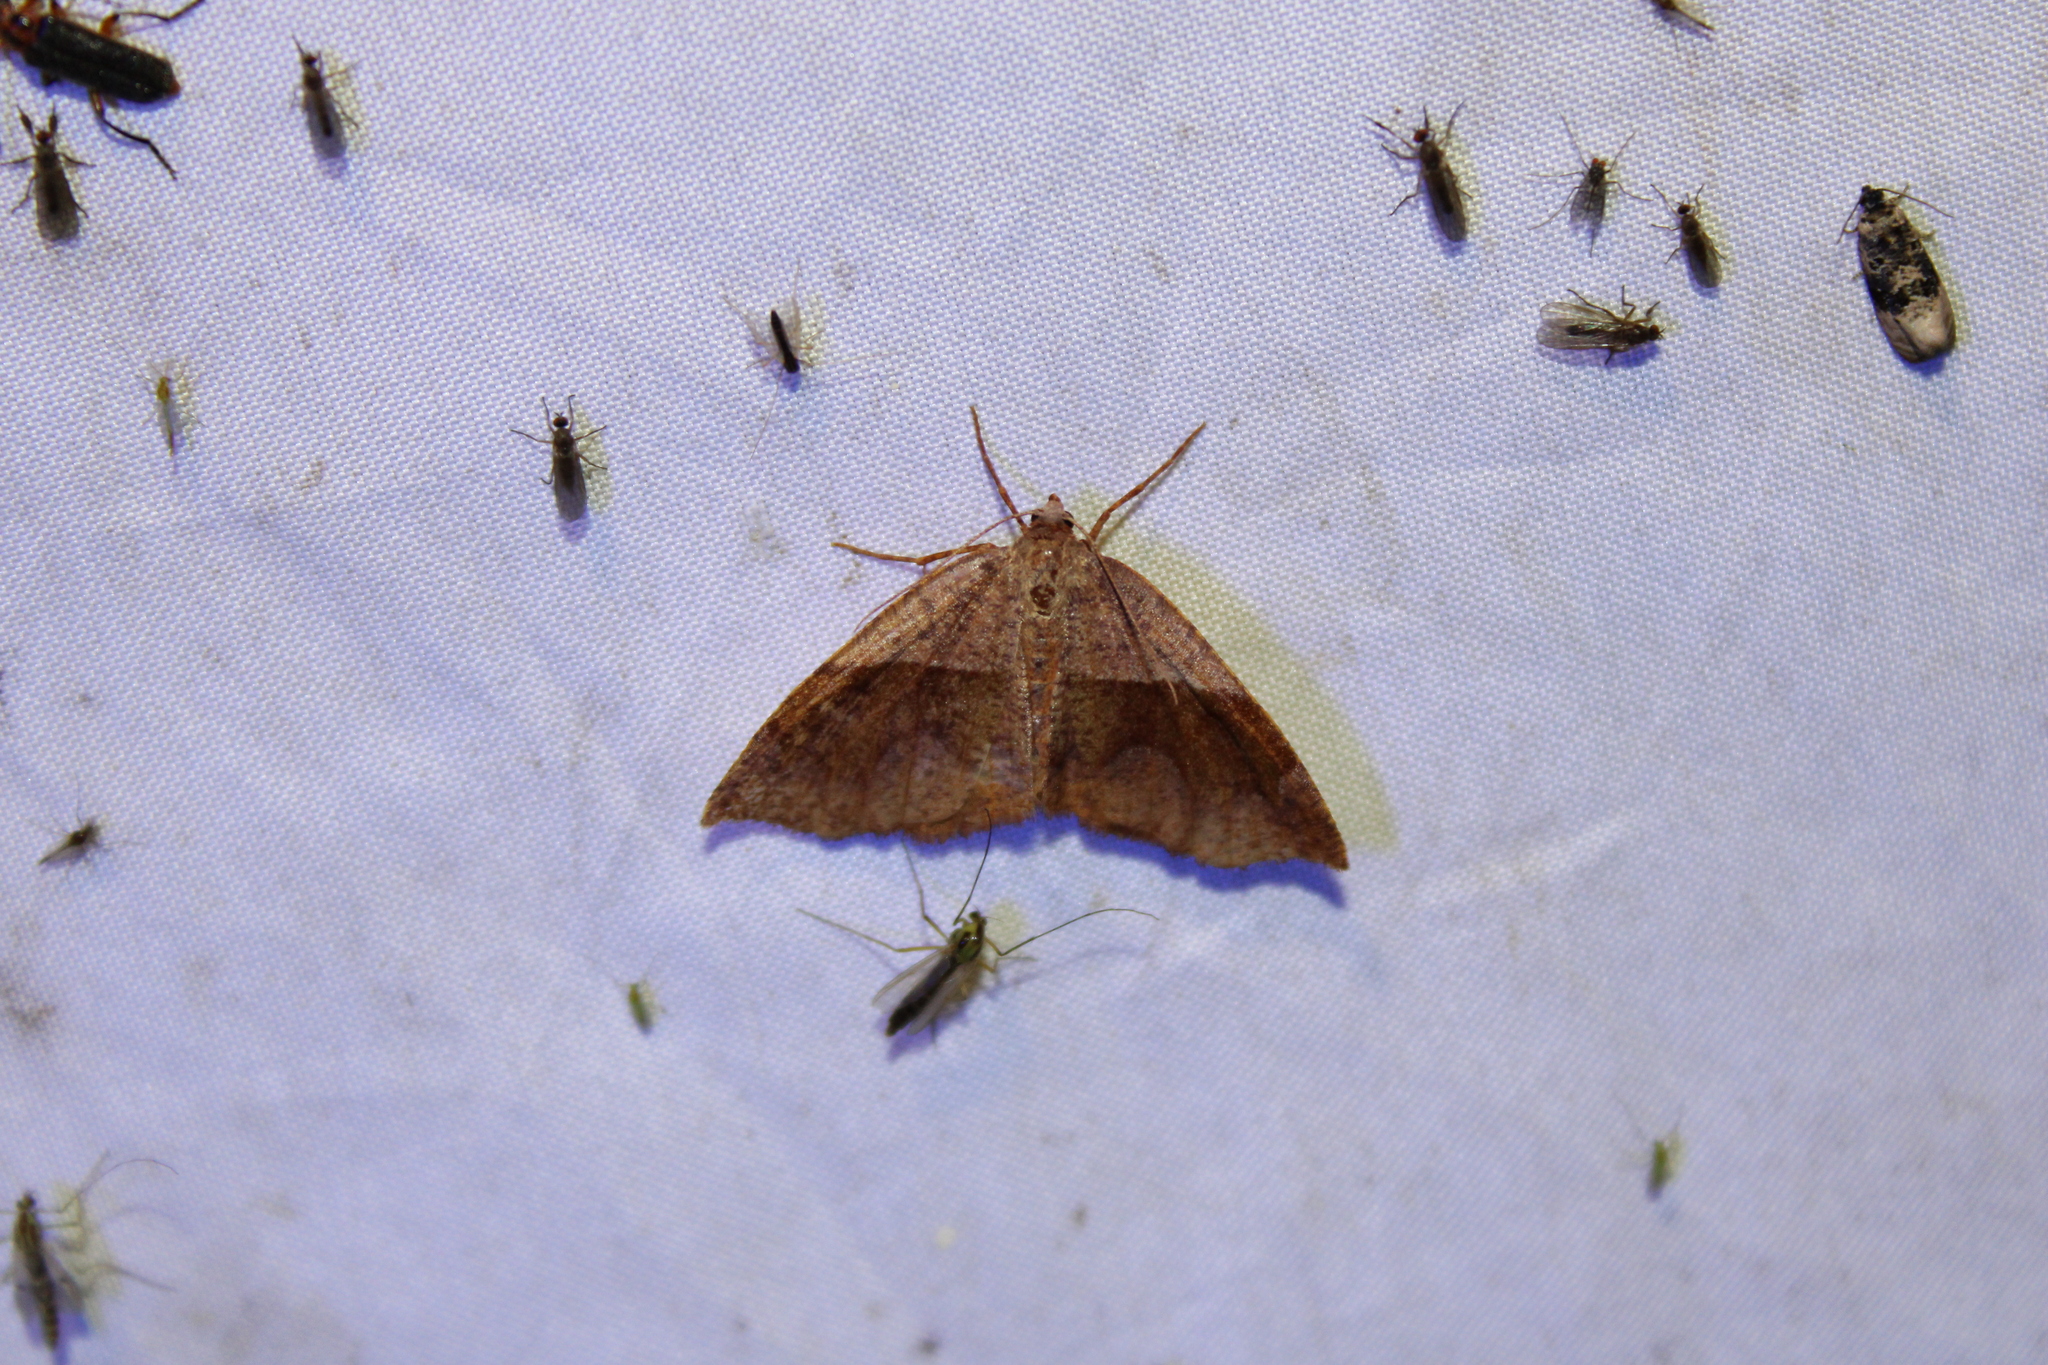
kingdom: Animalia
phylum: Arthropoda
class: Insecta
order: Lepidoptera
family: Geometridae
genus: Plagodis
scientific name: Plagodis pulveraria
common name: Barred umber
